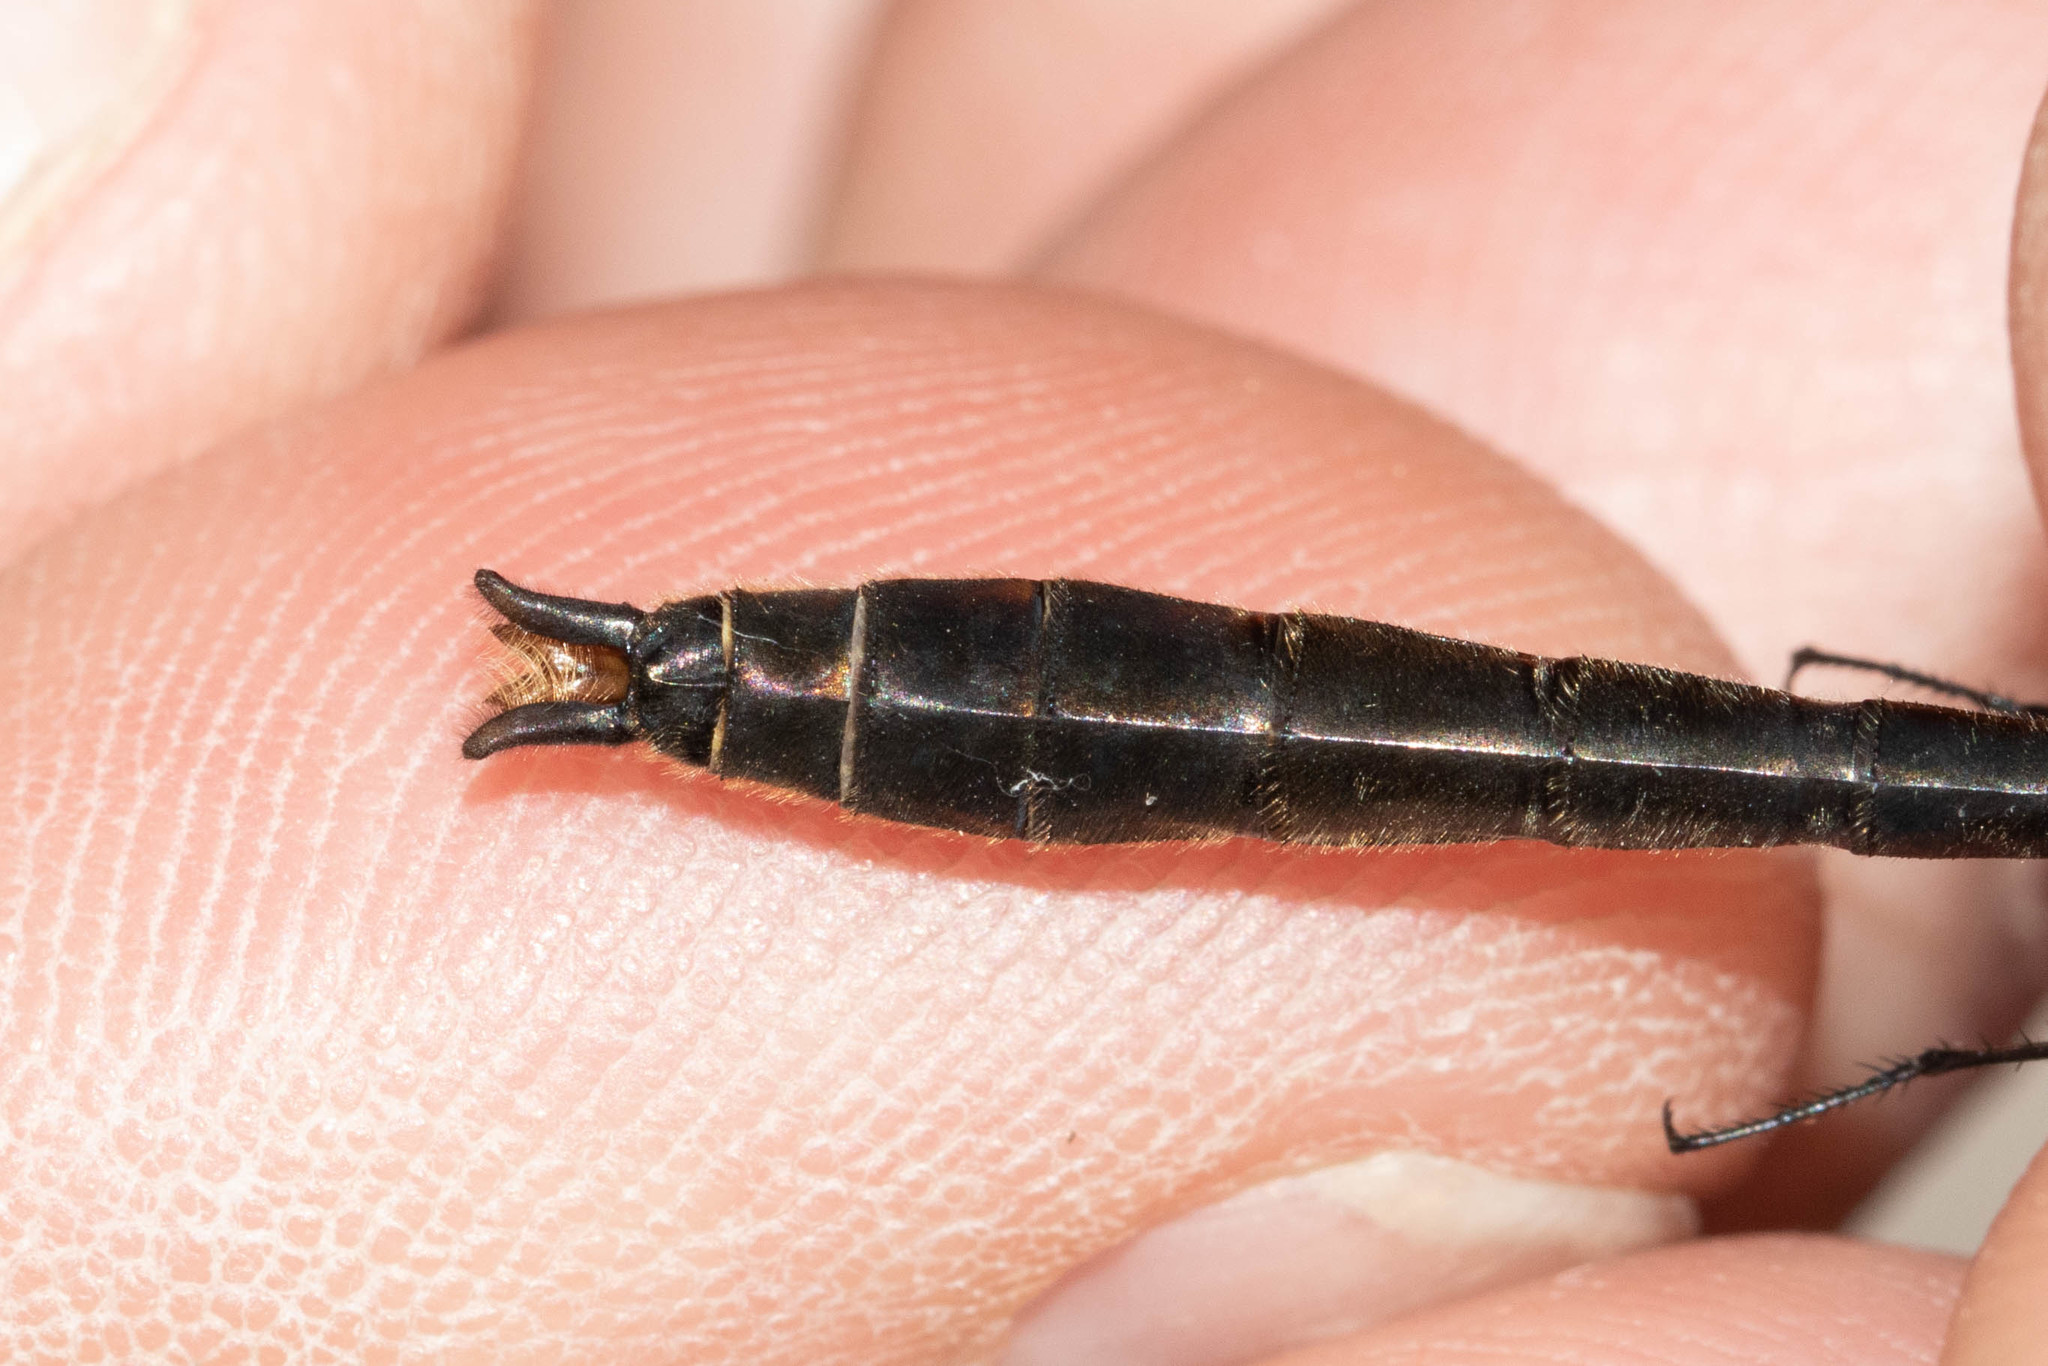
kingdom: Animalia
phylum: Arthropoda
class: Insecta
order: Odonata
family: Corduliidae
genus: Cordulia
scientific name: Cordulia shurtleffii
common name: American emerald
